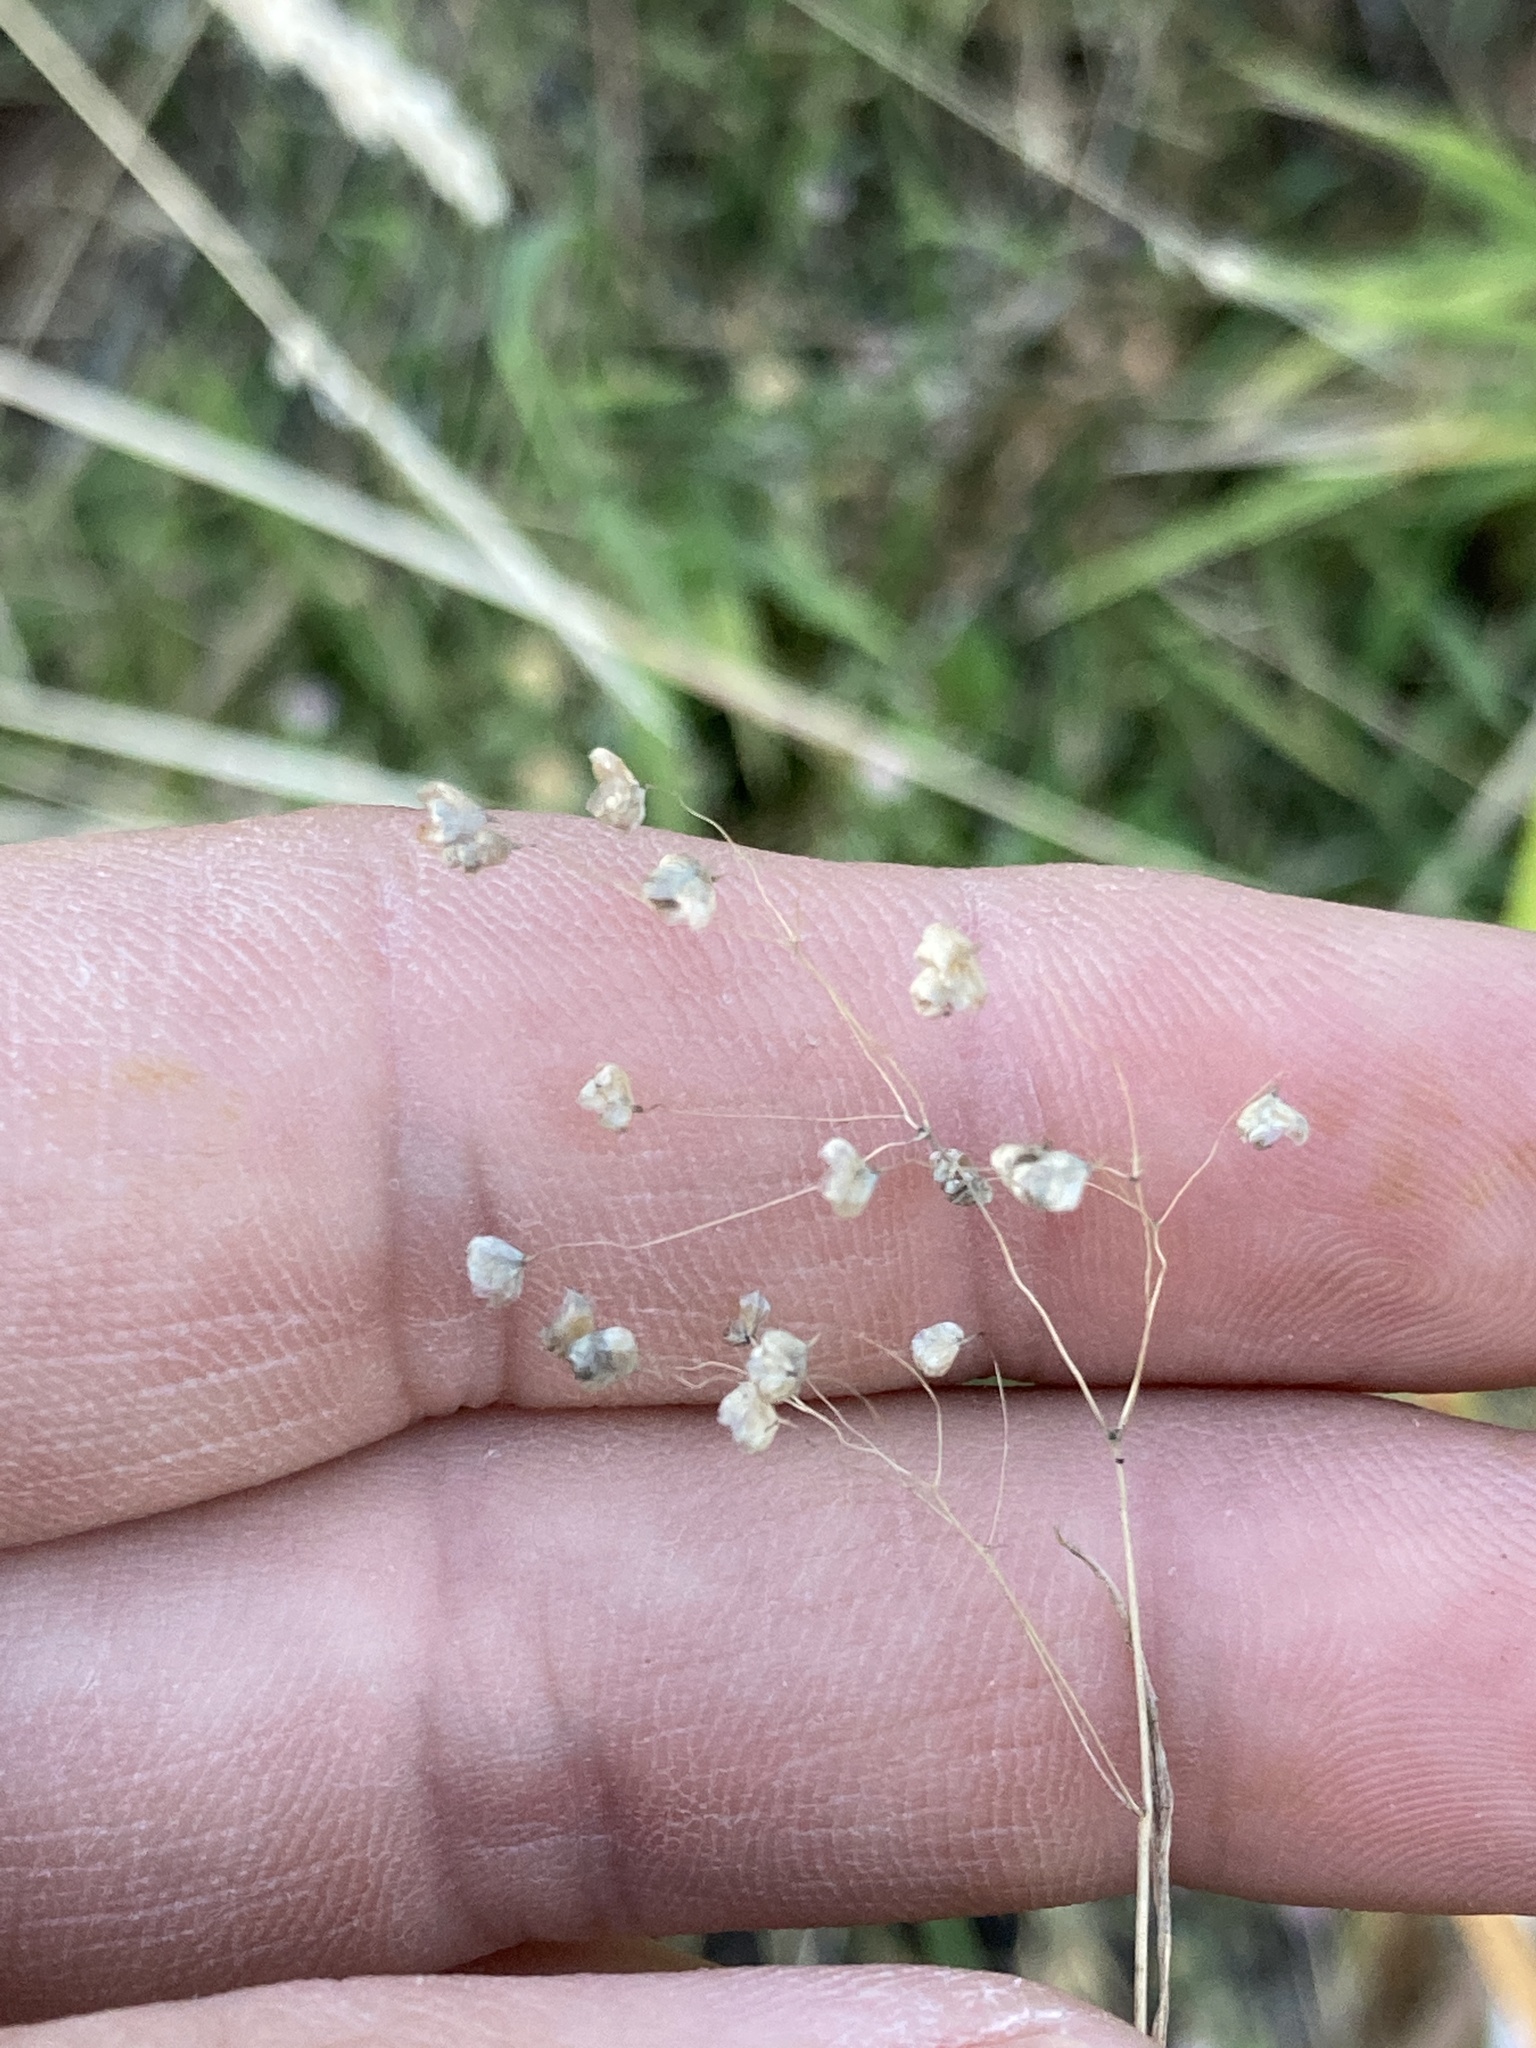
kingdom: Plantae
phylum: Tracheophyta
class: Liliopsida
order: Poales
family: Poaceae
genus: Briza
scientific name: Briza minor
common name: Lesser quaking-grass
